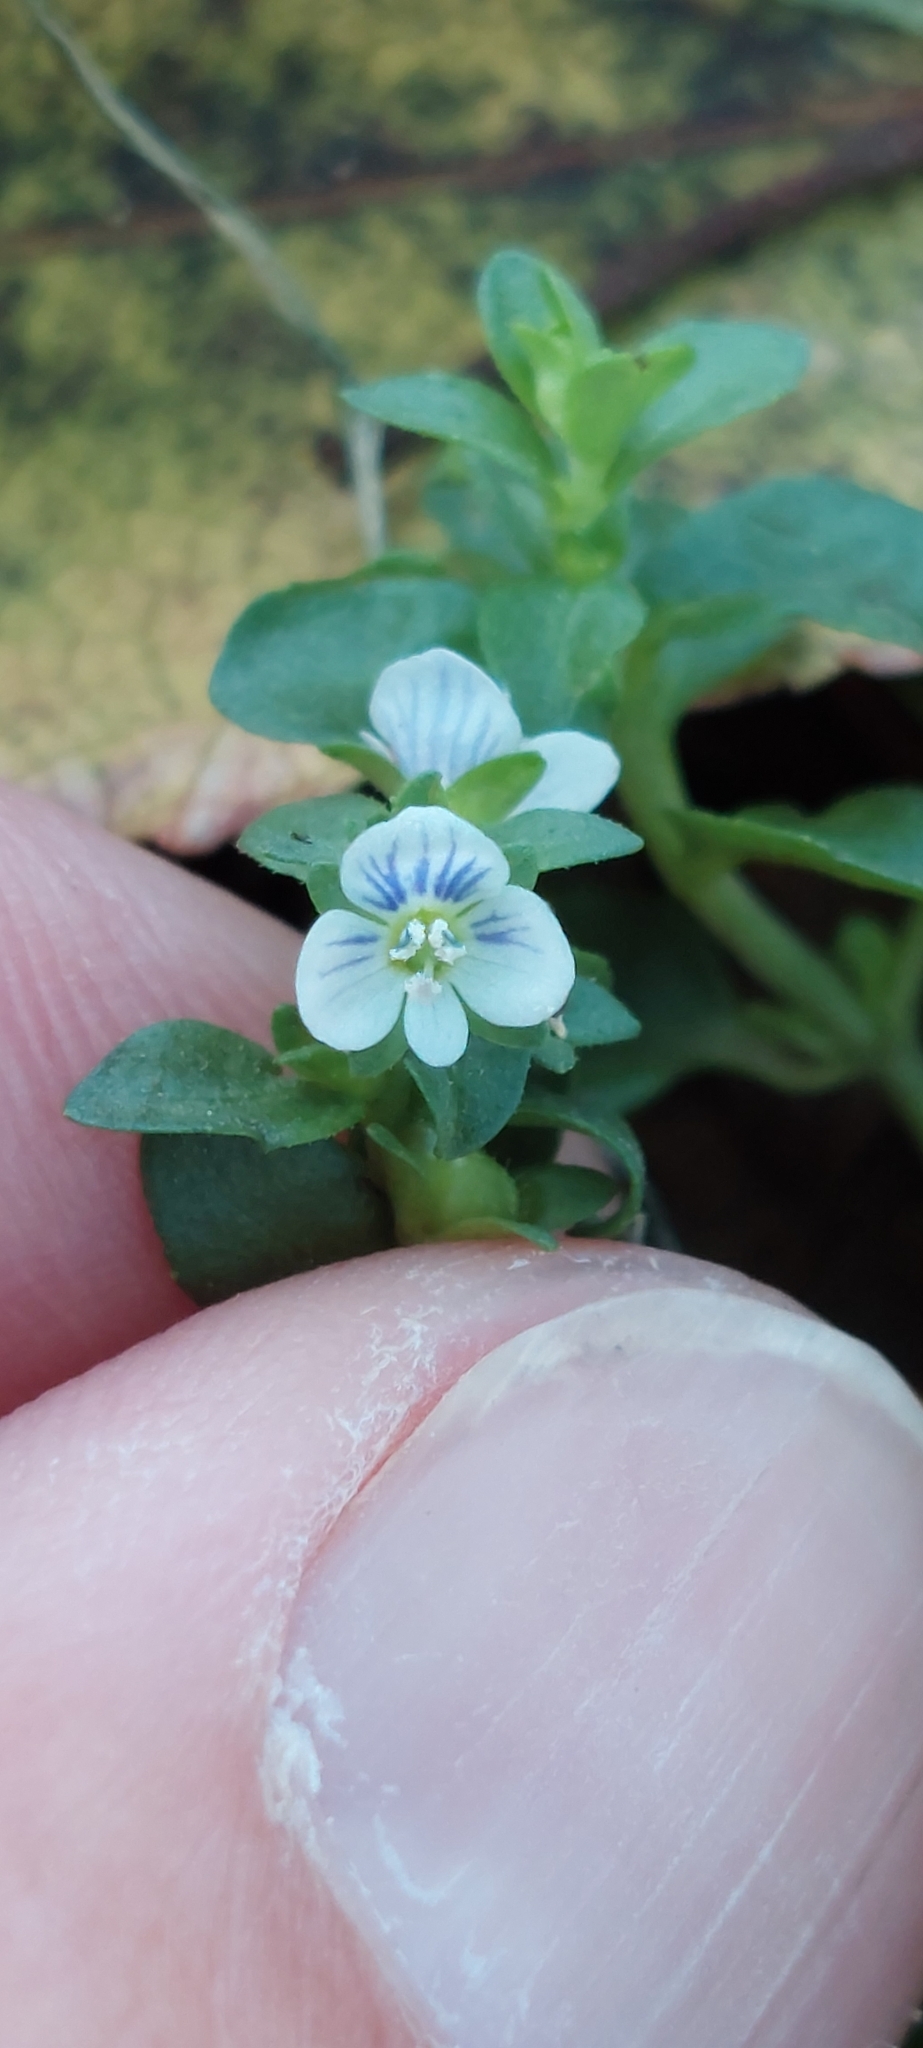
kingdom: Plantae
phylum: Tracheophyta
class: Magnoliopsida
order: Lamiales
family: Plantaginaceae
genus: Veronica
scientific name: Veronica serpyllifolia
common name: Thyme-leaved speedwell
